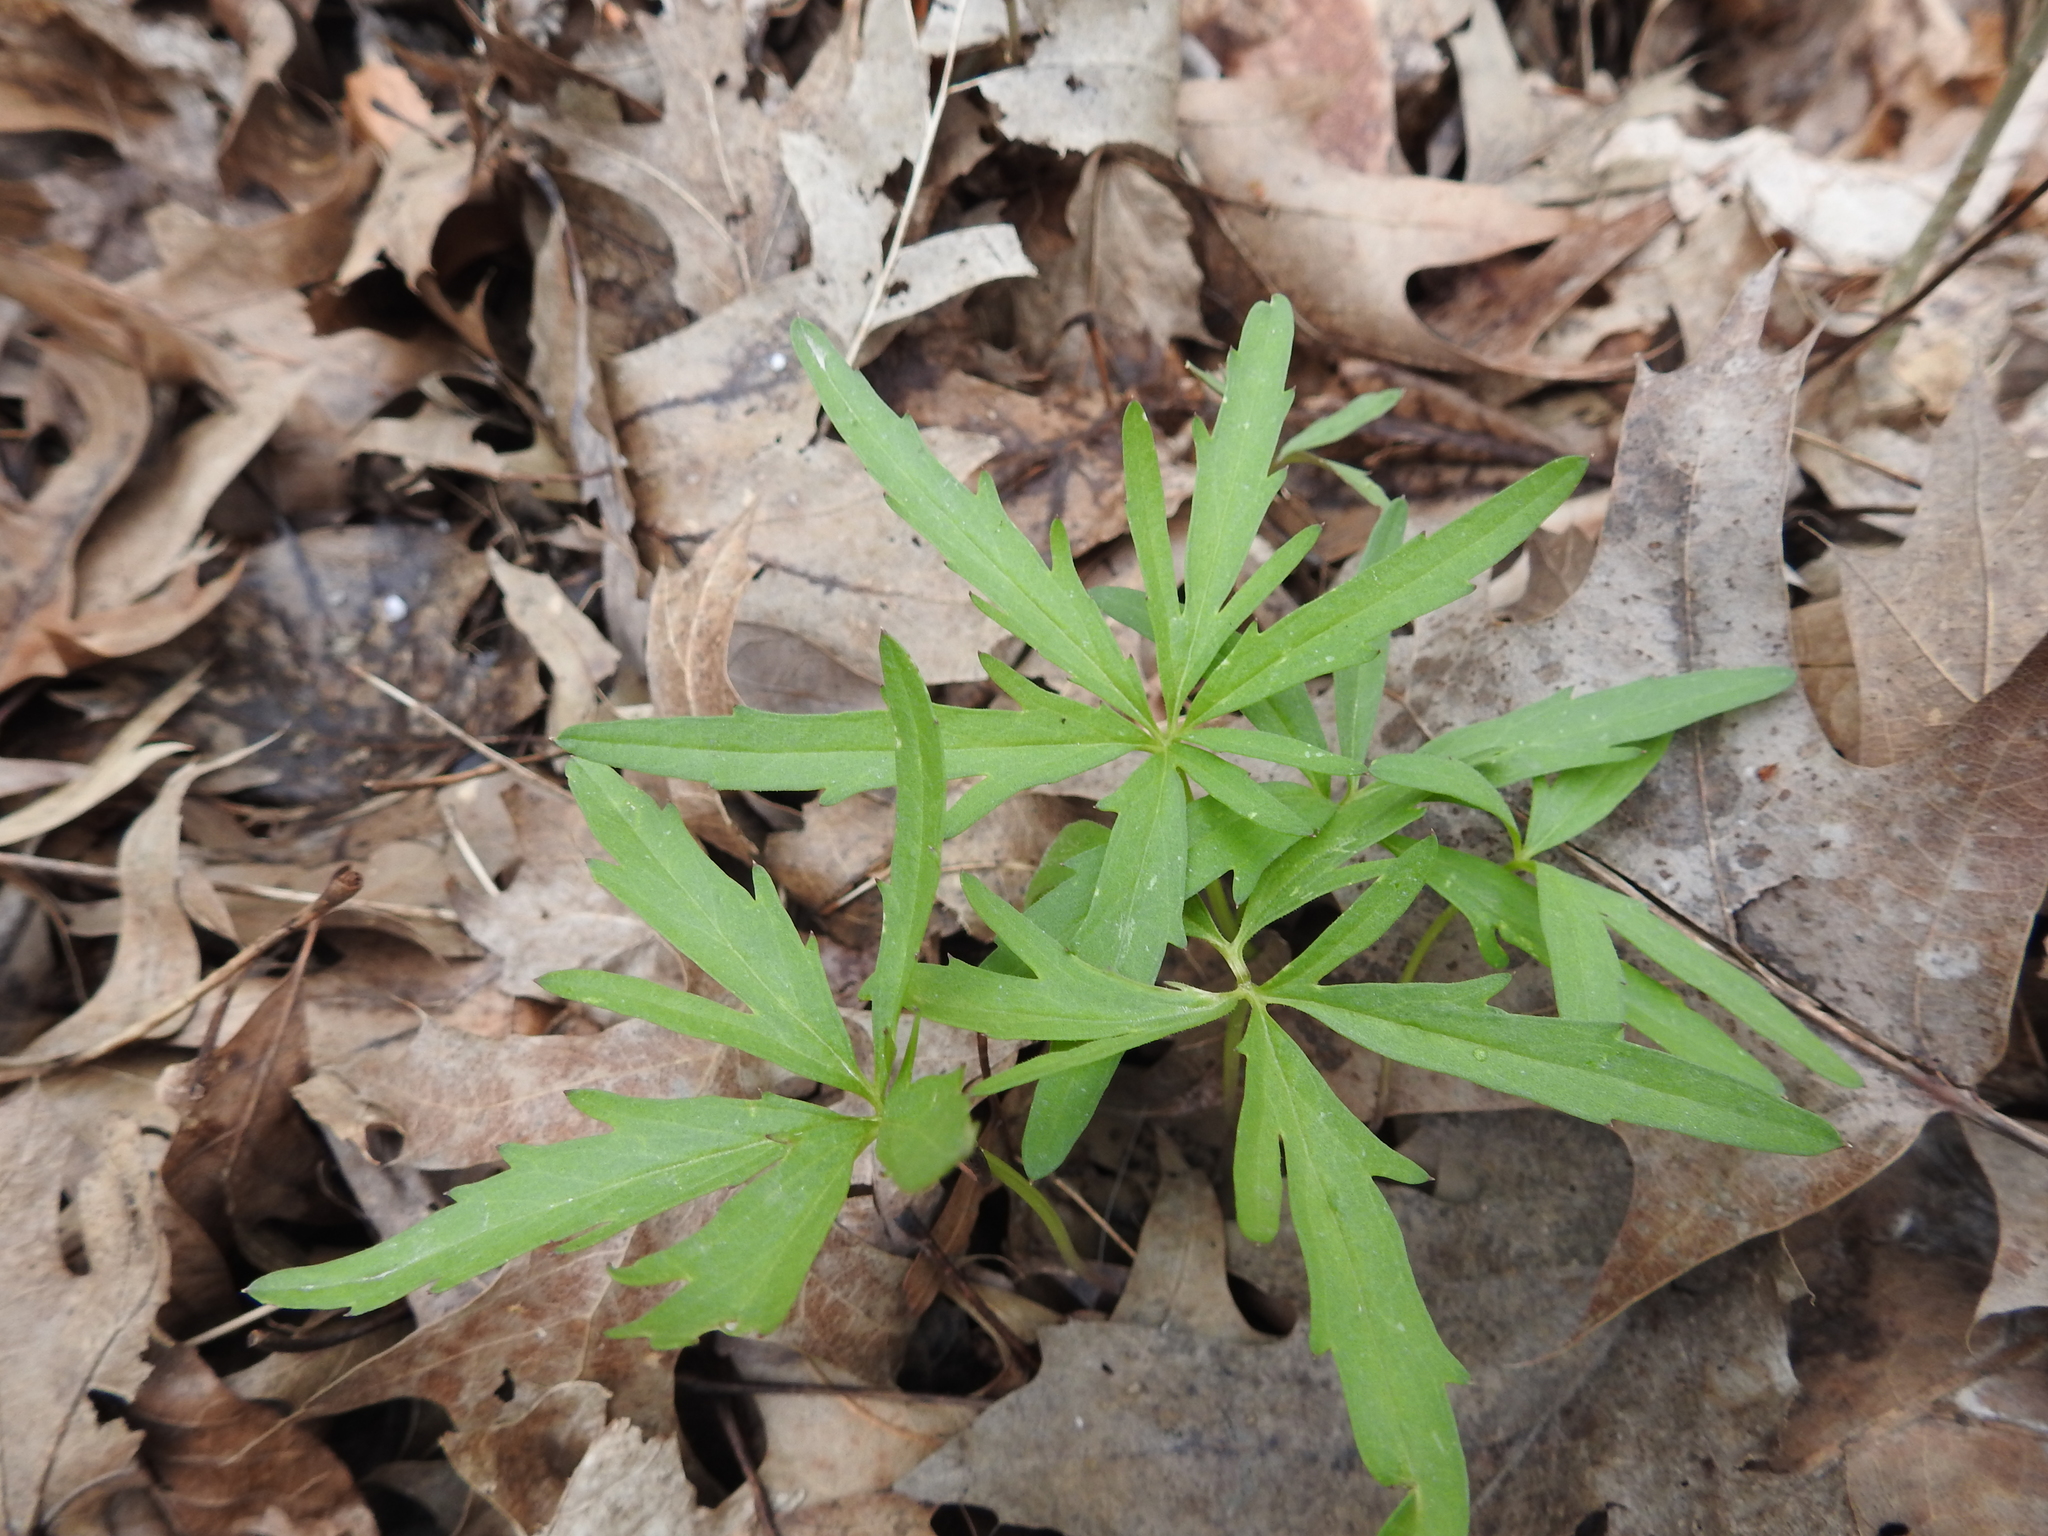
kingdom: Plantae
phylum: Tracheophyta
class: Magnoliopsida
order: Brassicales
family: Brassicaceae
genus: Cardamine
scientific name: Cardamine concatenata
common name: Cut-leaf toothcup
